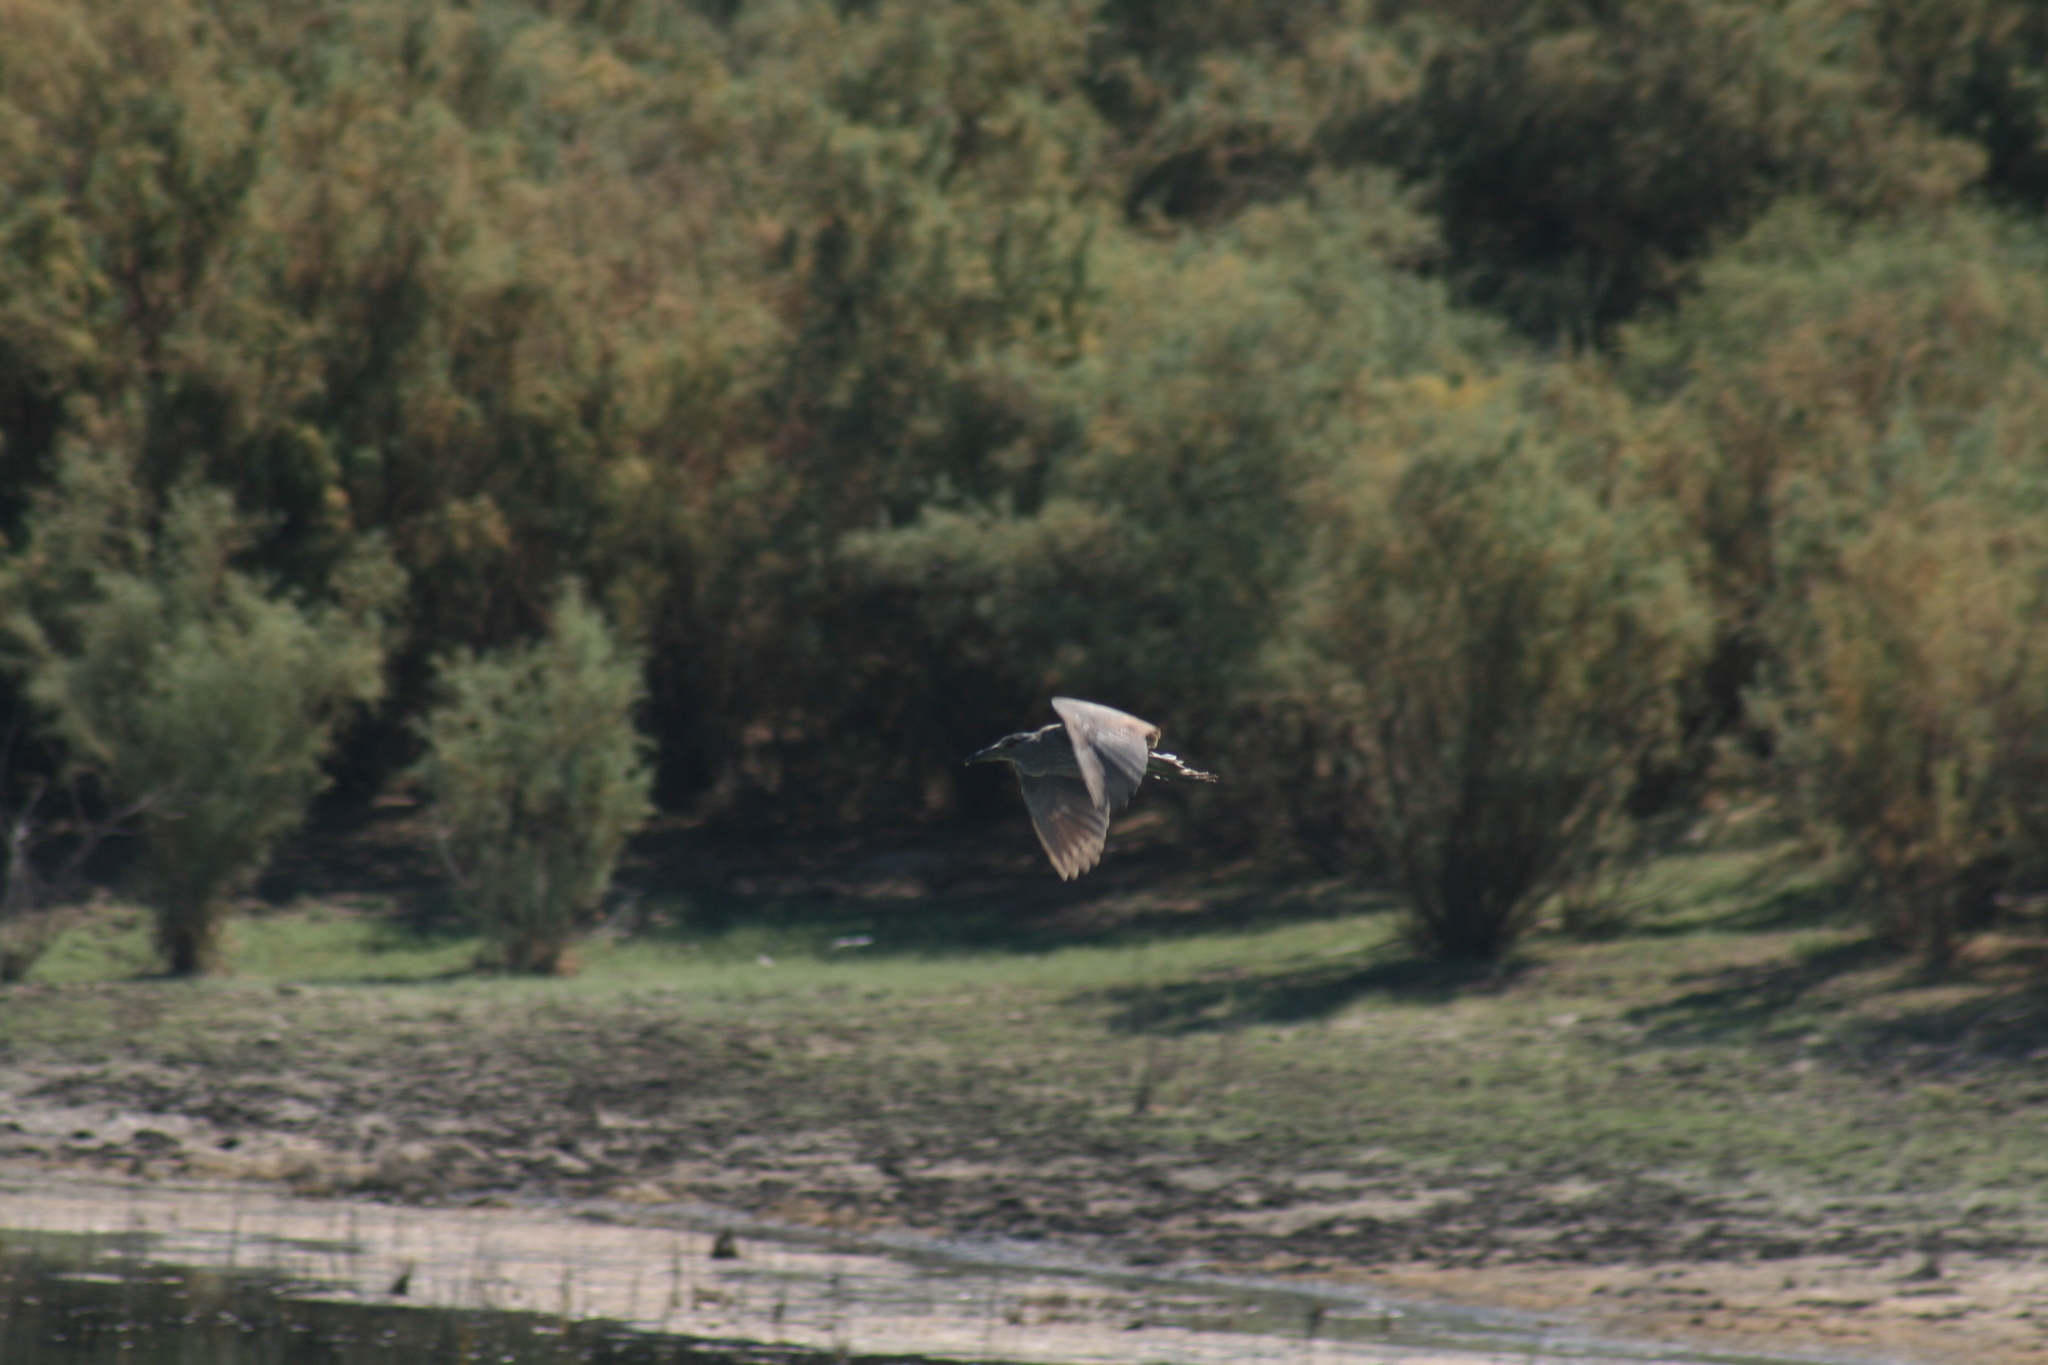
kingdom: Animalia
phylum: Chordata
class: Aves
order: Pelecaniformes
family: Ardeidae
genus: Nycticorax
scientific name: Nycticorax nycticorax
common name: Black-crowned night heron
